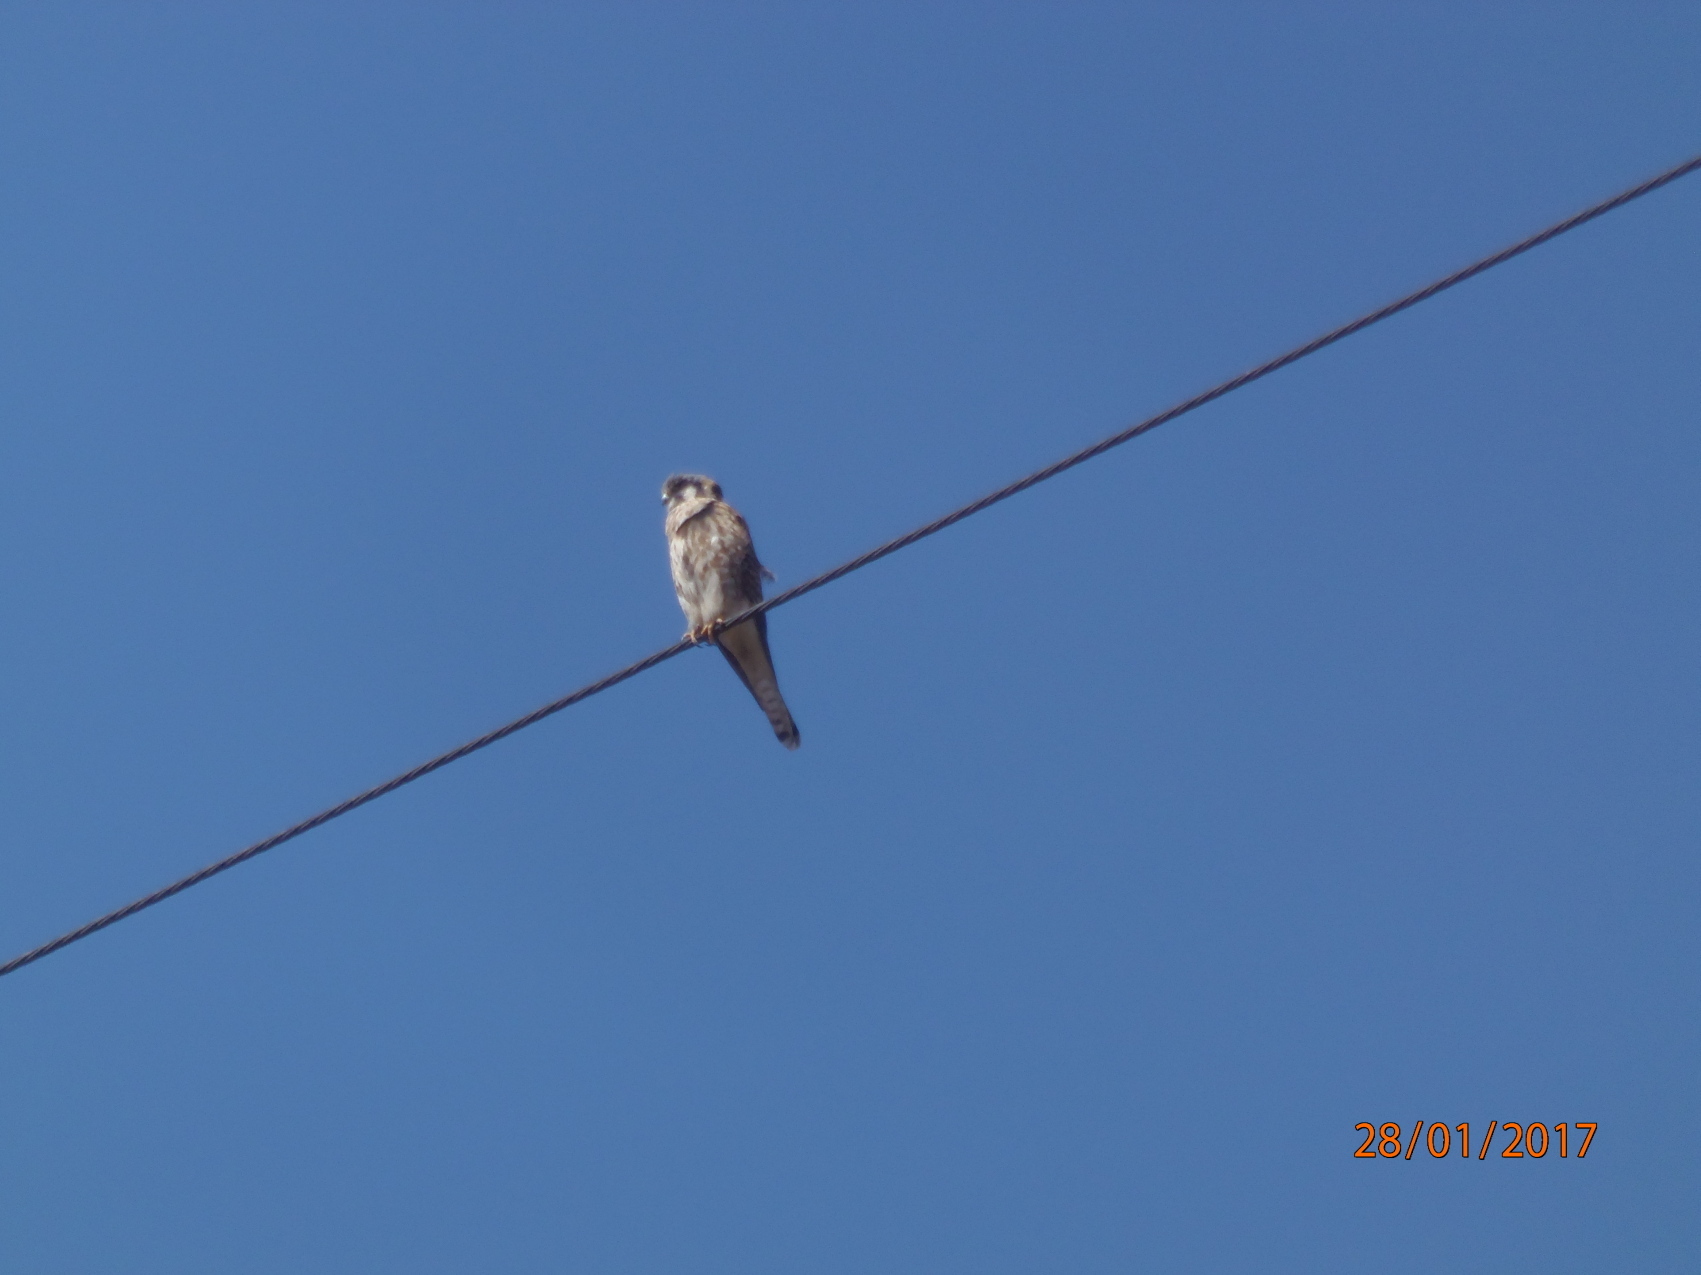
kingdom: Animalia
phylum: Chordata
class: Aves
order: Falconiformes
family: Falconidae
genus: Falco
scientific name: Falco sparverius
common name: American kestrel
